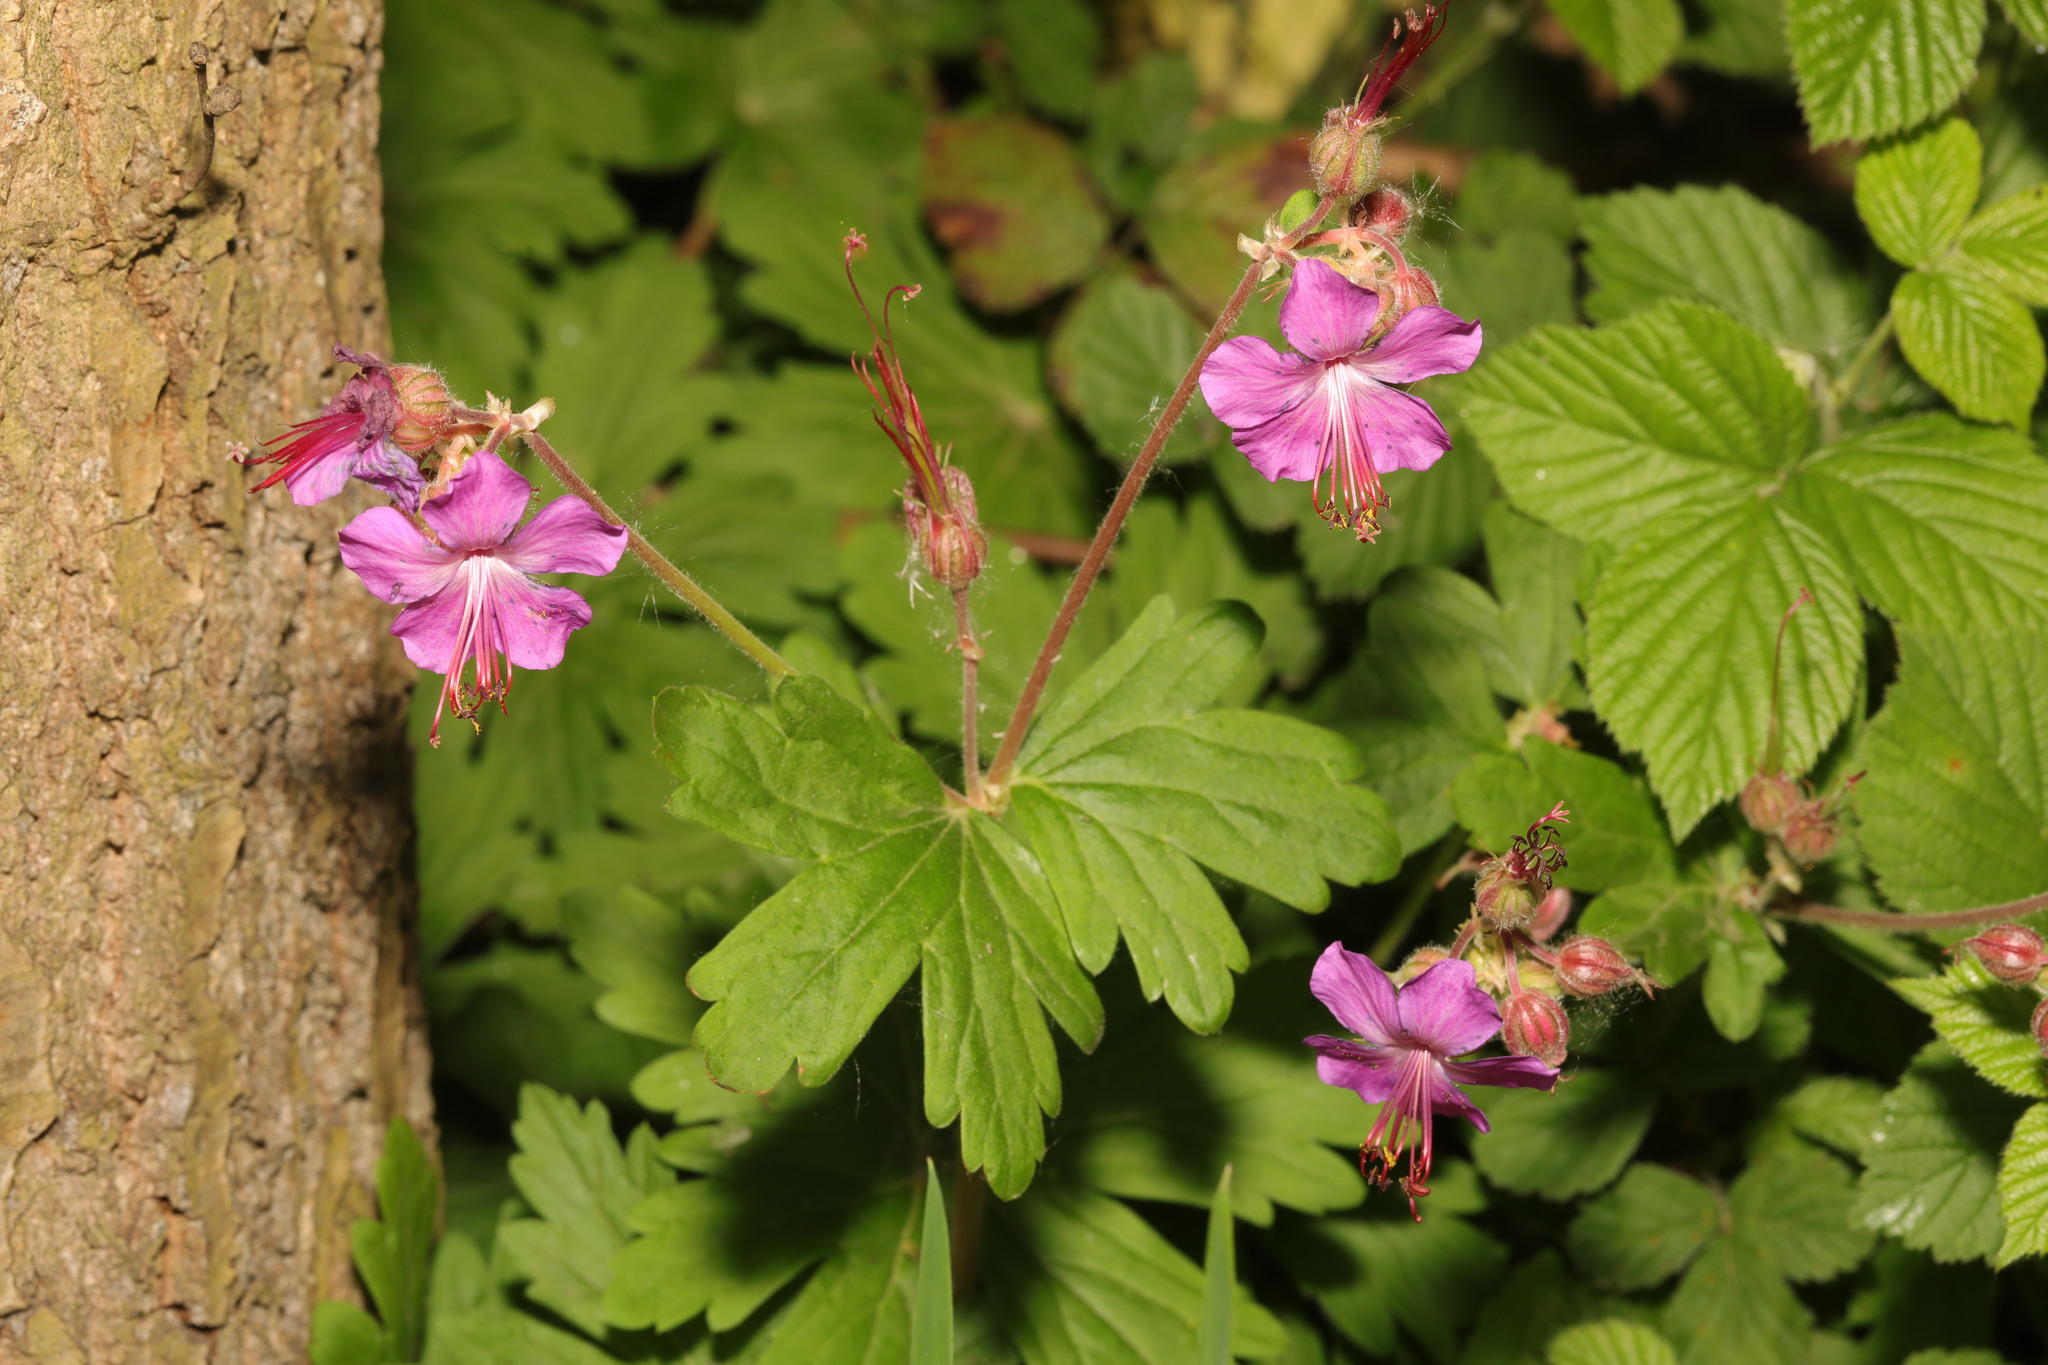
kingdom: Plantae
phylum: Tracheophyta
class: Magnoliopsida
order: Geraniales
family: Geraniaceae
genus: Geranium
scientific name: Geranium macrorrhizum
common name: Rock crane's-bill
